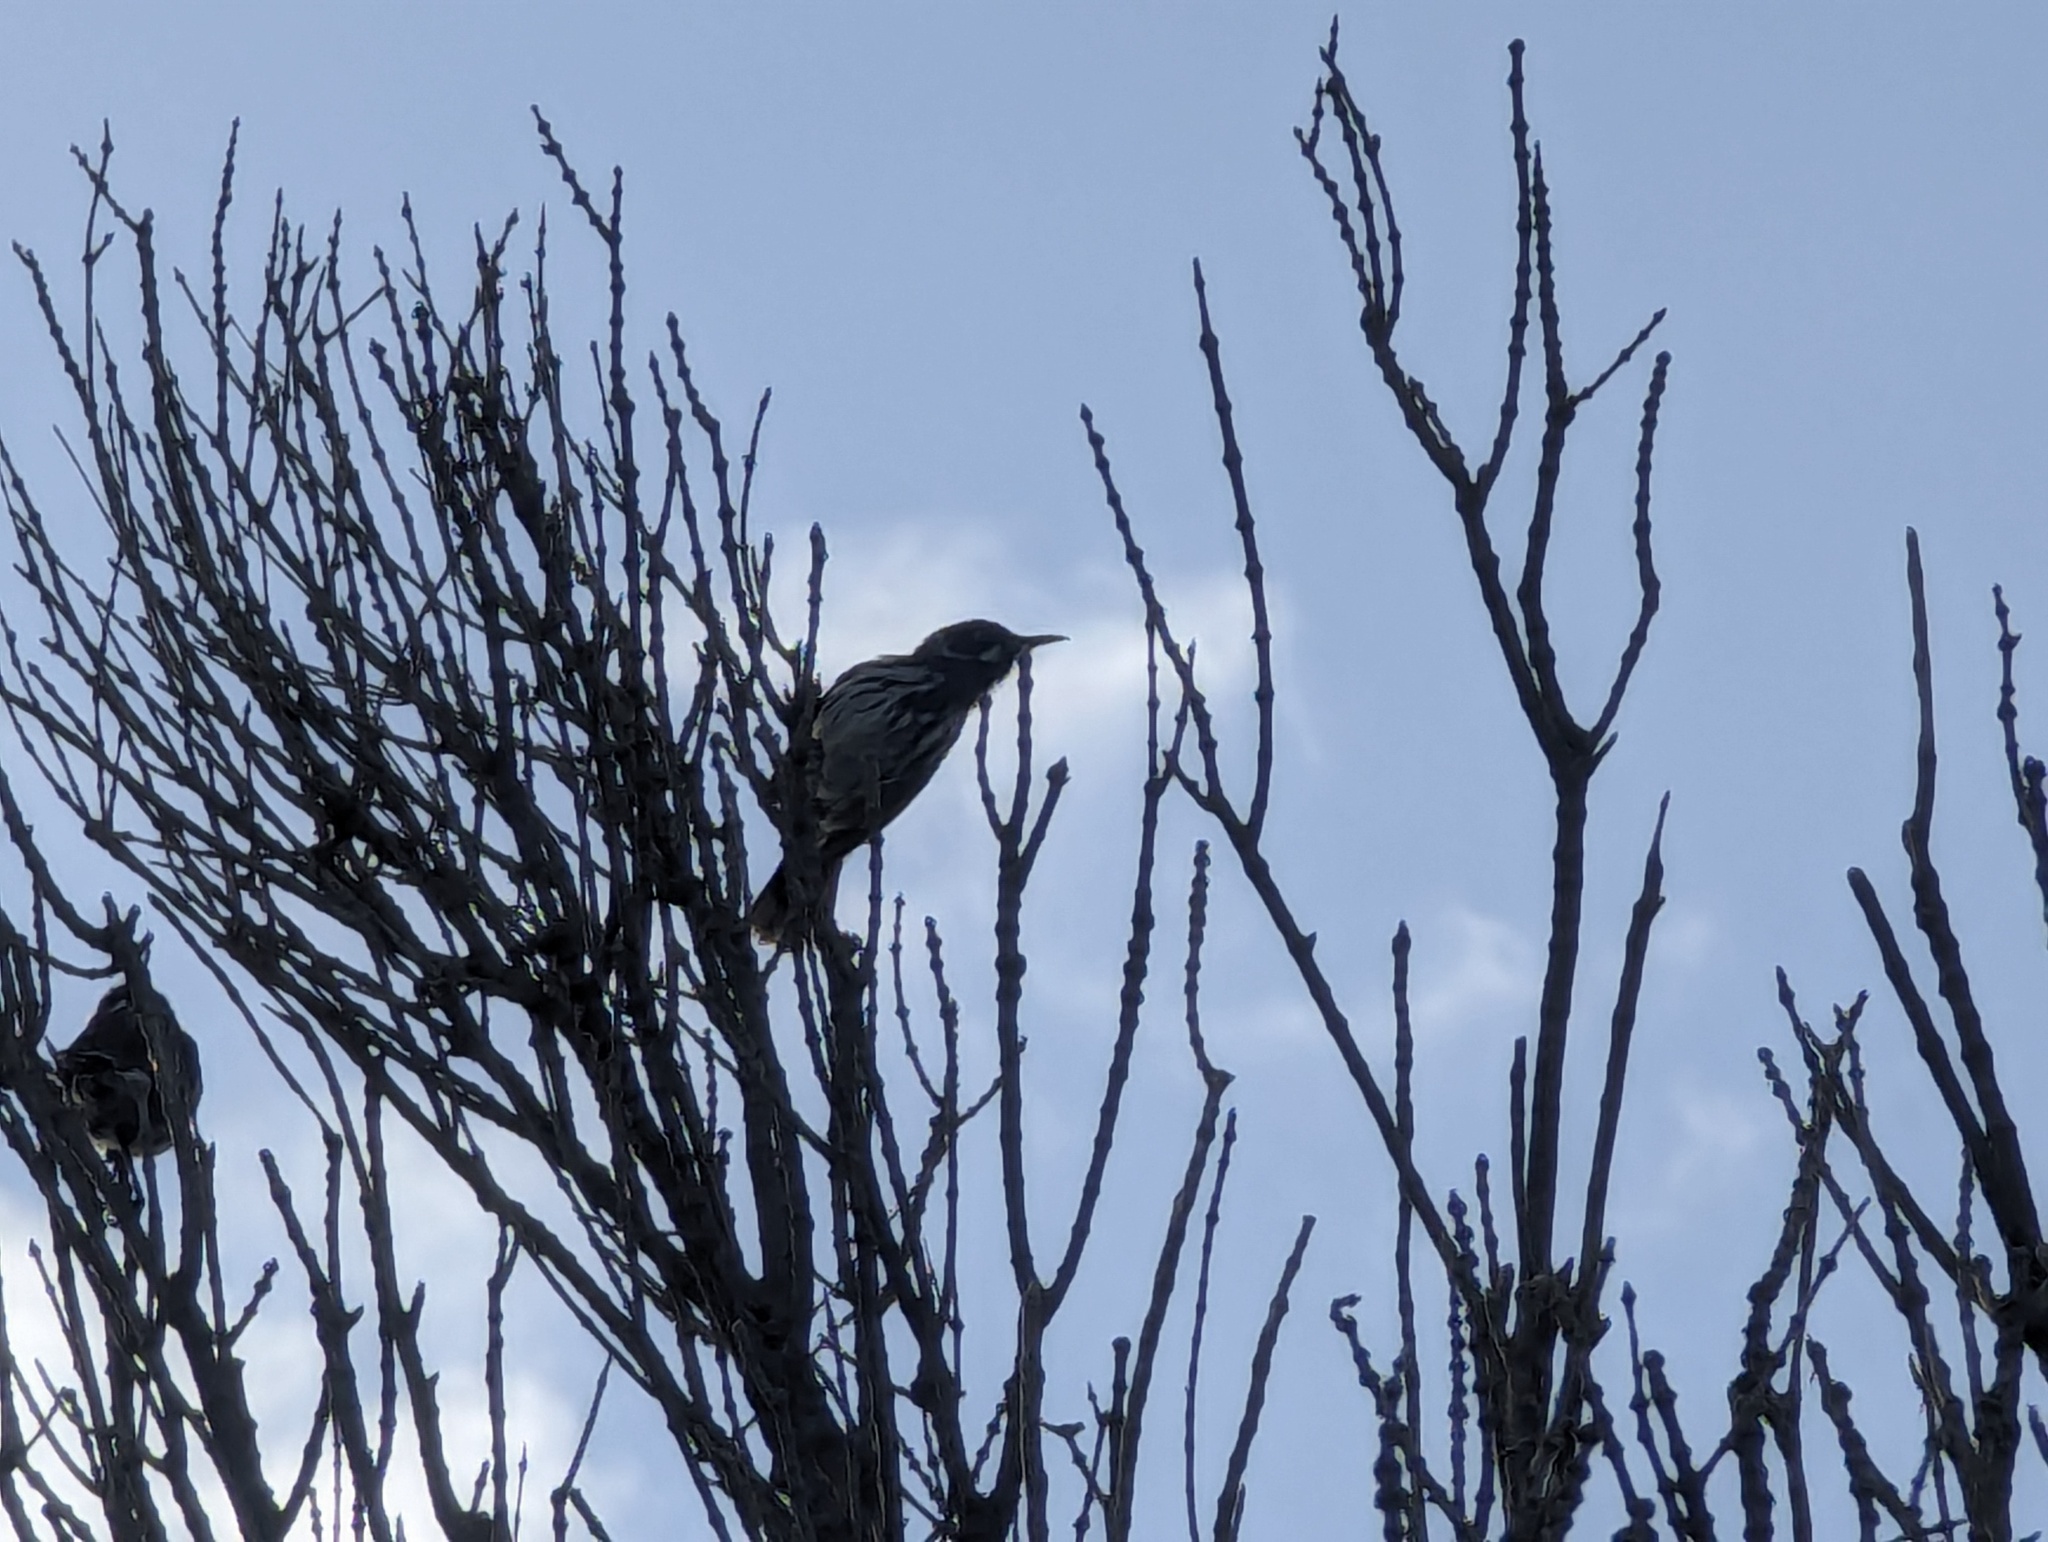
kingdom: Animalia
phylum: Chordata
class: Aves
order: Passeriformes
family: Meliphagidae
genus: Phylidonyris
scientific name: Phylidonyris novaehollandiae
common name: New holland honeyeater
